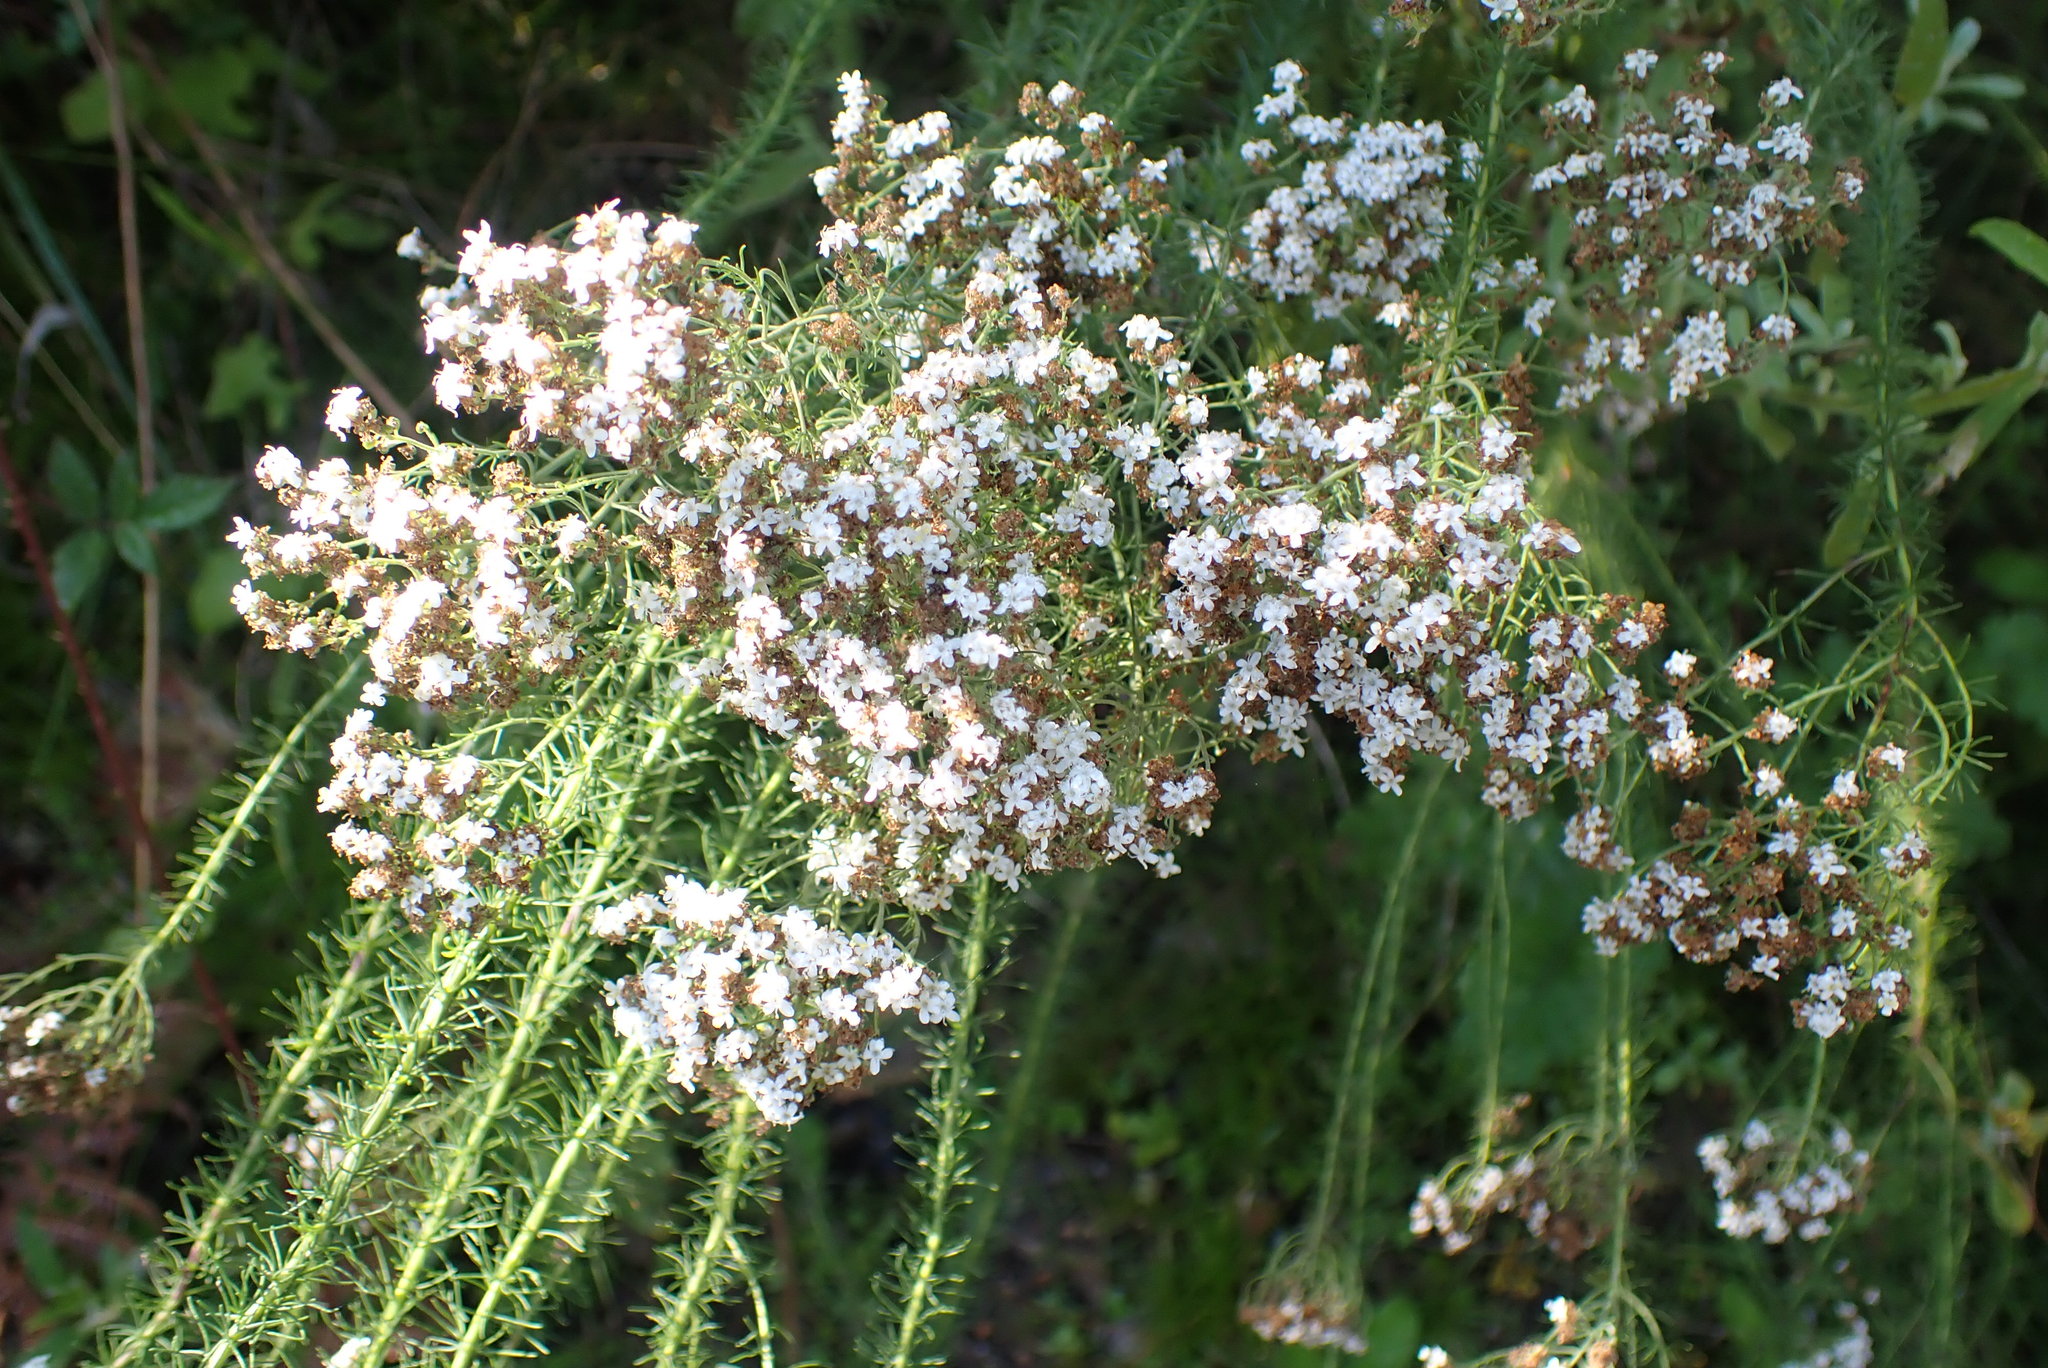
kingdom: Plantae
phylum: Tracheophyta
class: Magnoliopsida
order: Lamiales
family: Scrophulariaceae
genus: Selago
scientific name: Selago corymbosa
